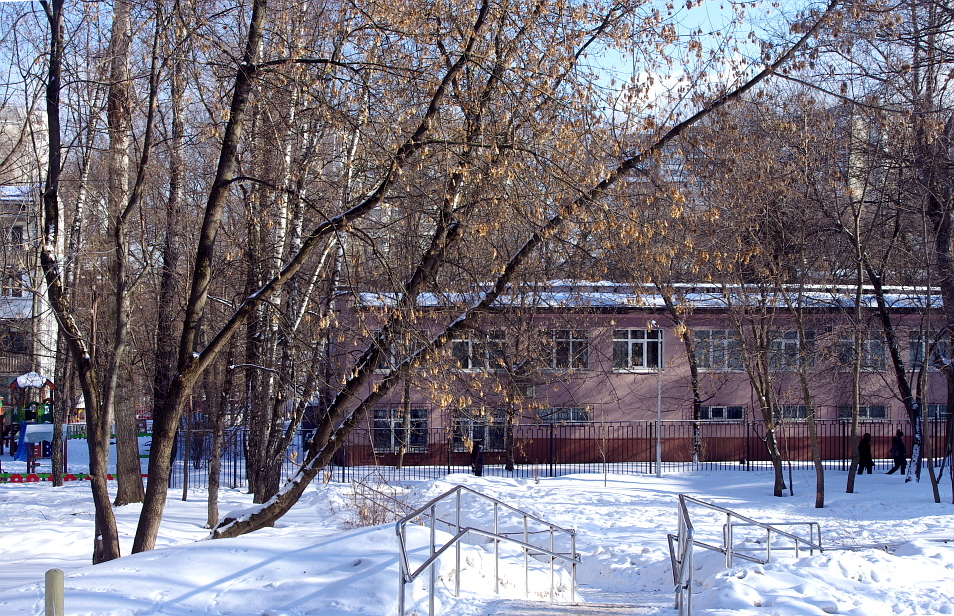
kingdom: Plantae
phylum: Tracheophyta
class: Magnoliopsida
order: Sapindales
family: Sapindaceae
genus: Acer
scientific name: Acer negundo
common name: Ashleaf maple
